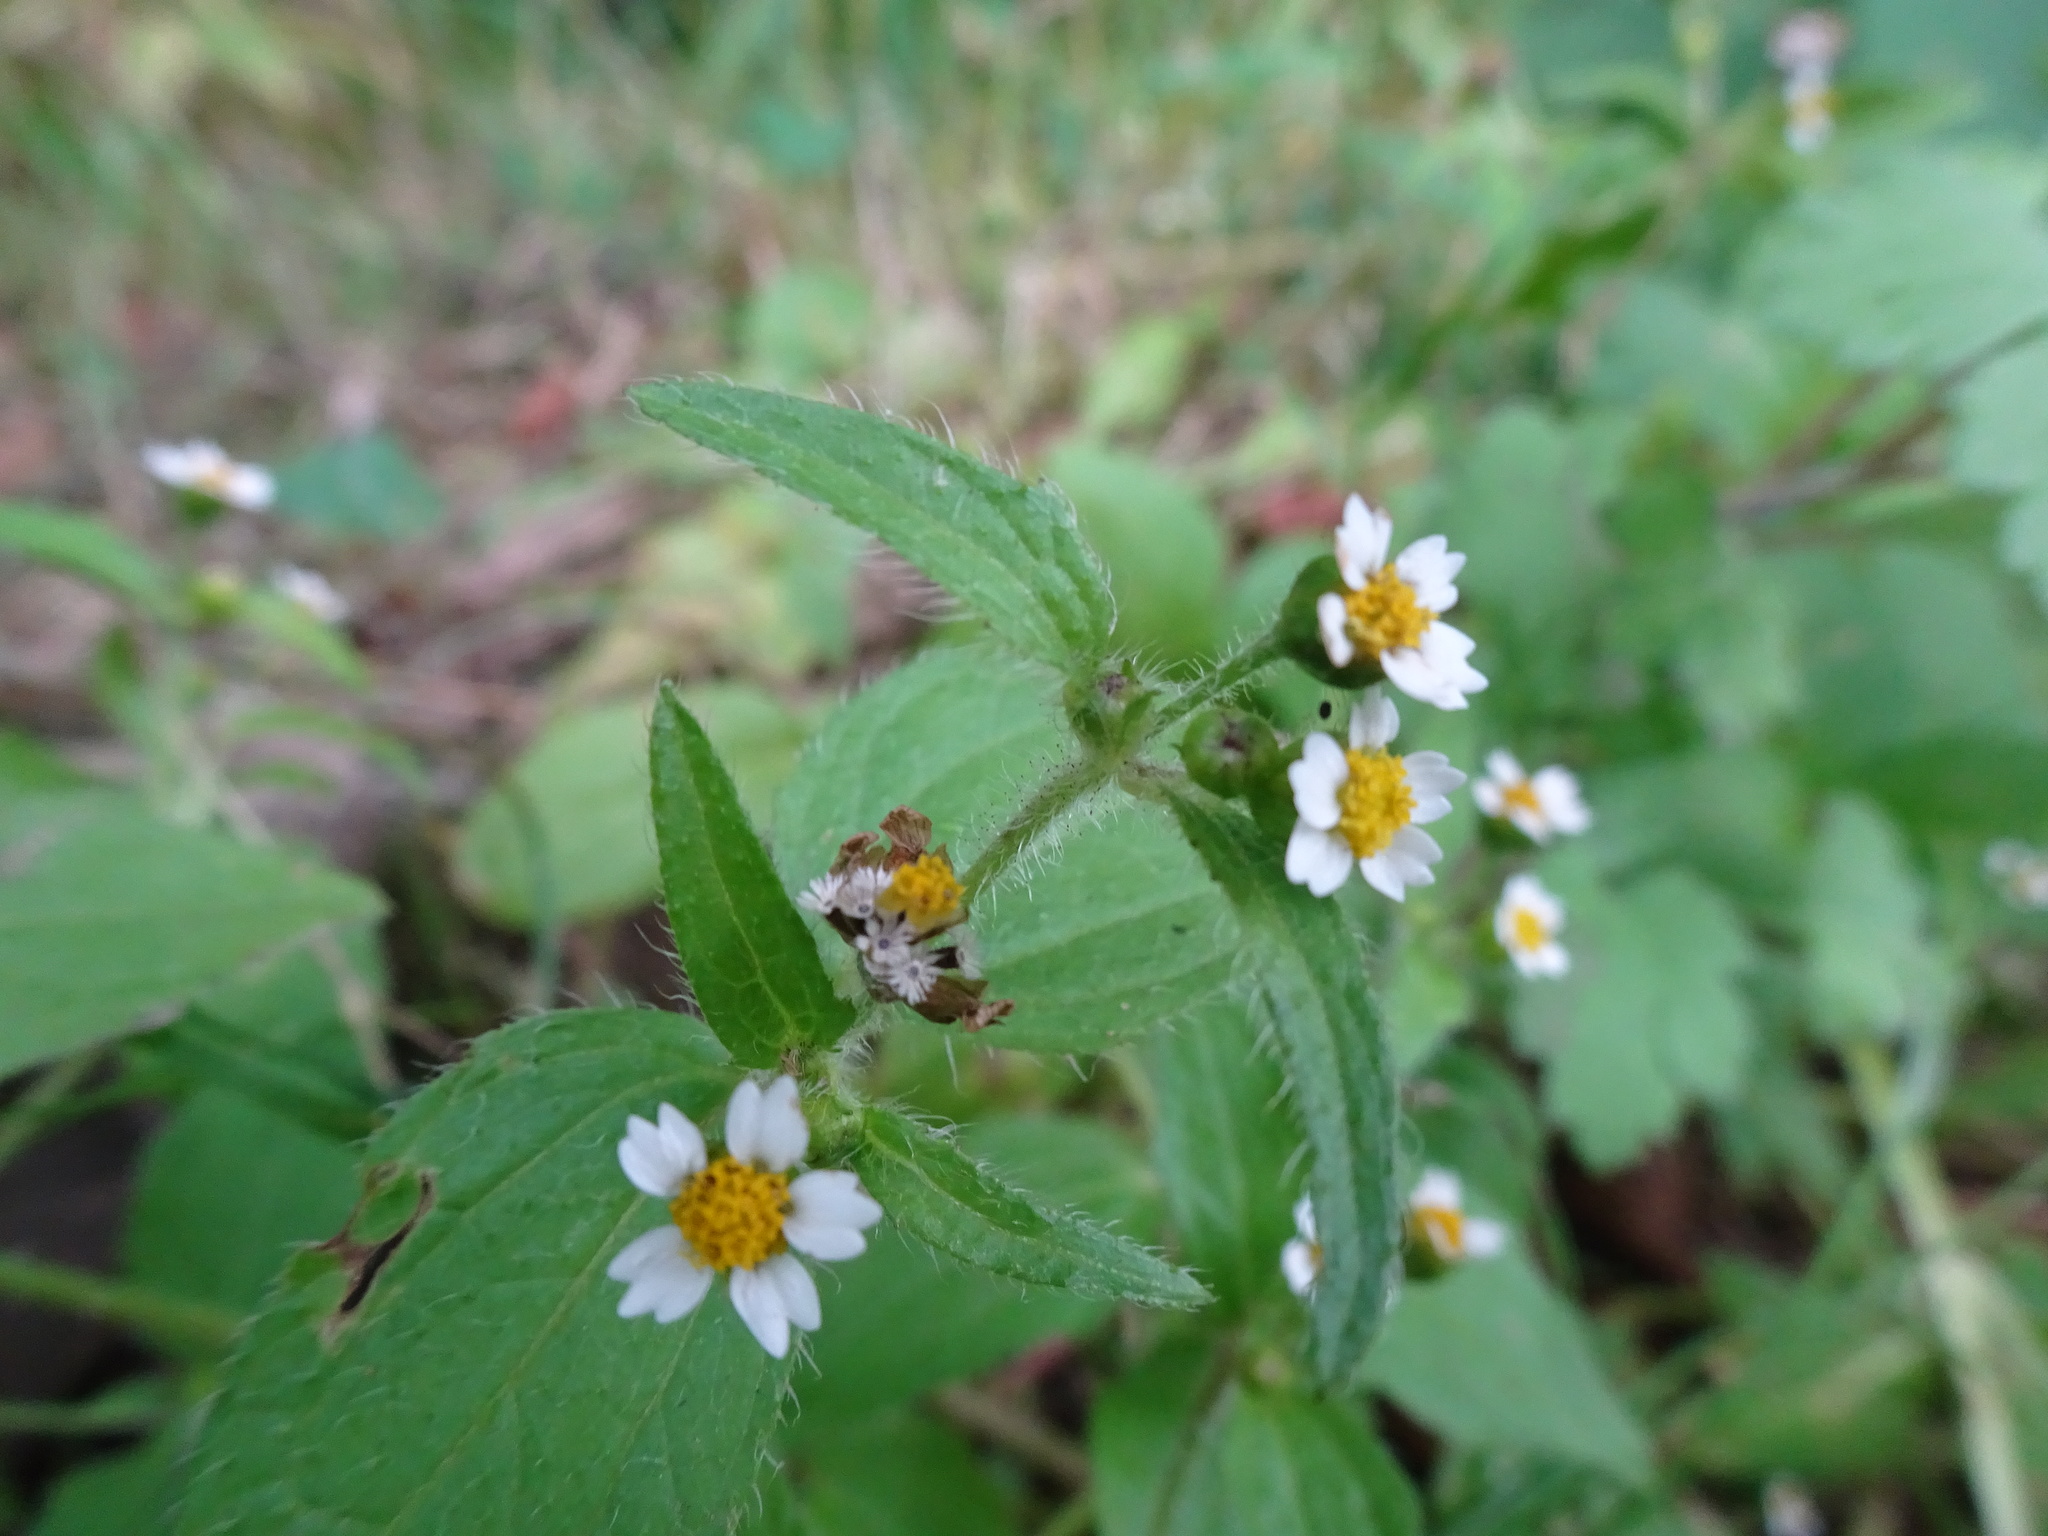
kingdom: Plantae
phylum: Tracheophyta
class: Magnoliopsida
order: Asterales
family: Asteraceae
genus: Galinsoga
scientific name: Galinsoga quadriradiata
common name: Shaggy soldier
